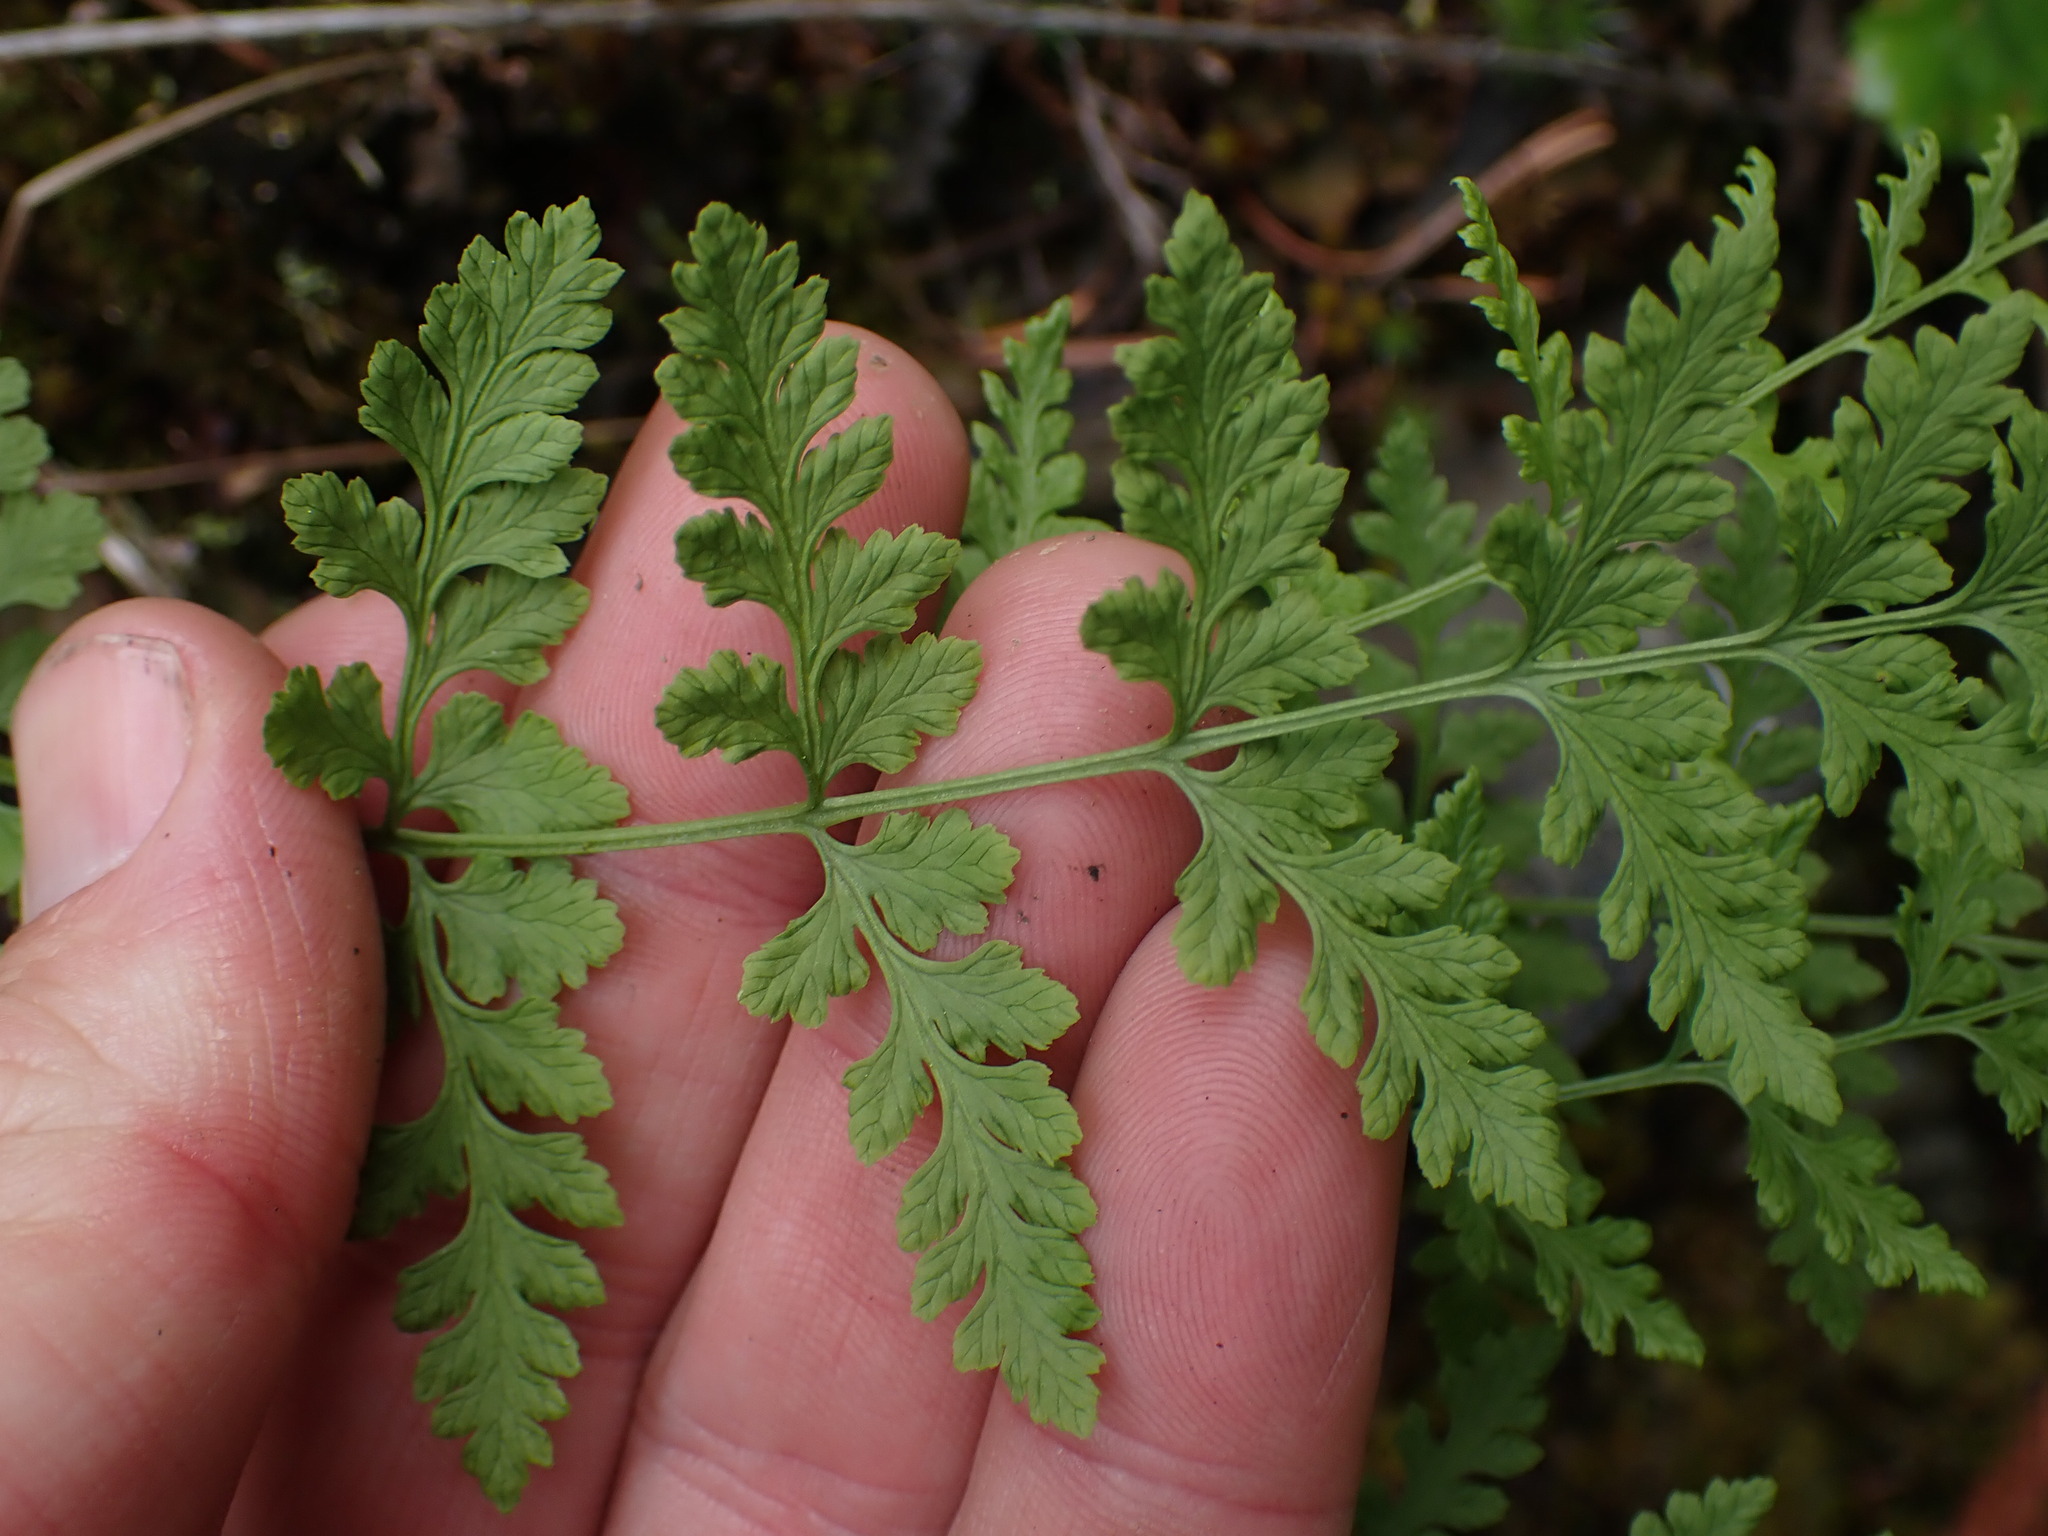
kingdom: Plantae
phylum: Tracheophyta
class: Polypodiopsida
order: Polypodiales
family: Cystopteridaceae
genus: Cystopteris
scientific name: Cystopteris fragilis
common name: Brittle bladder fern
